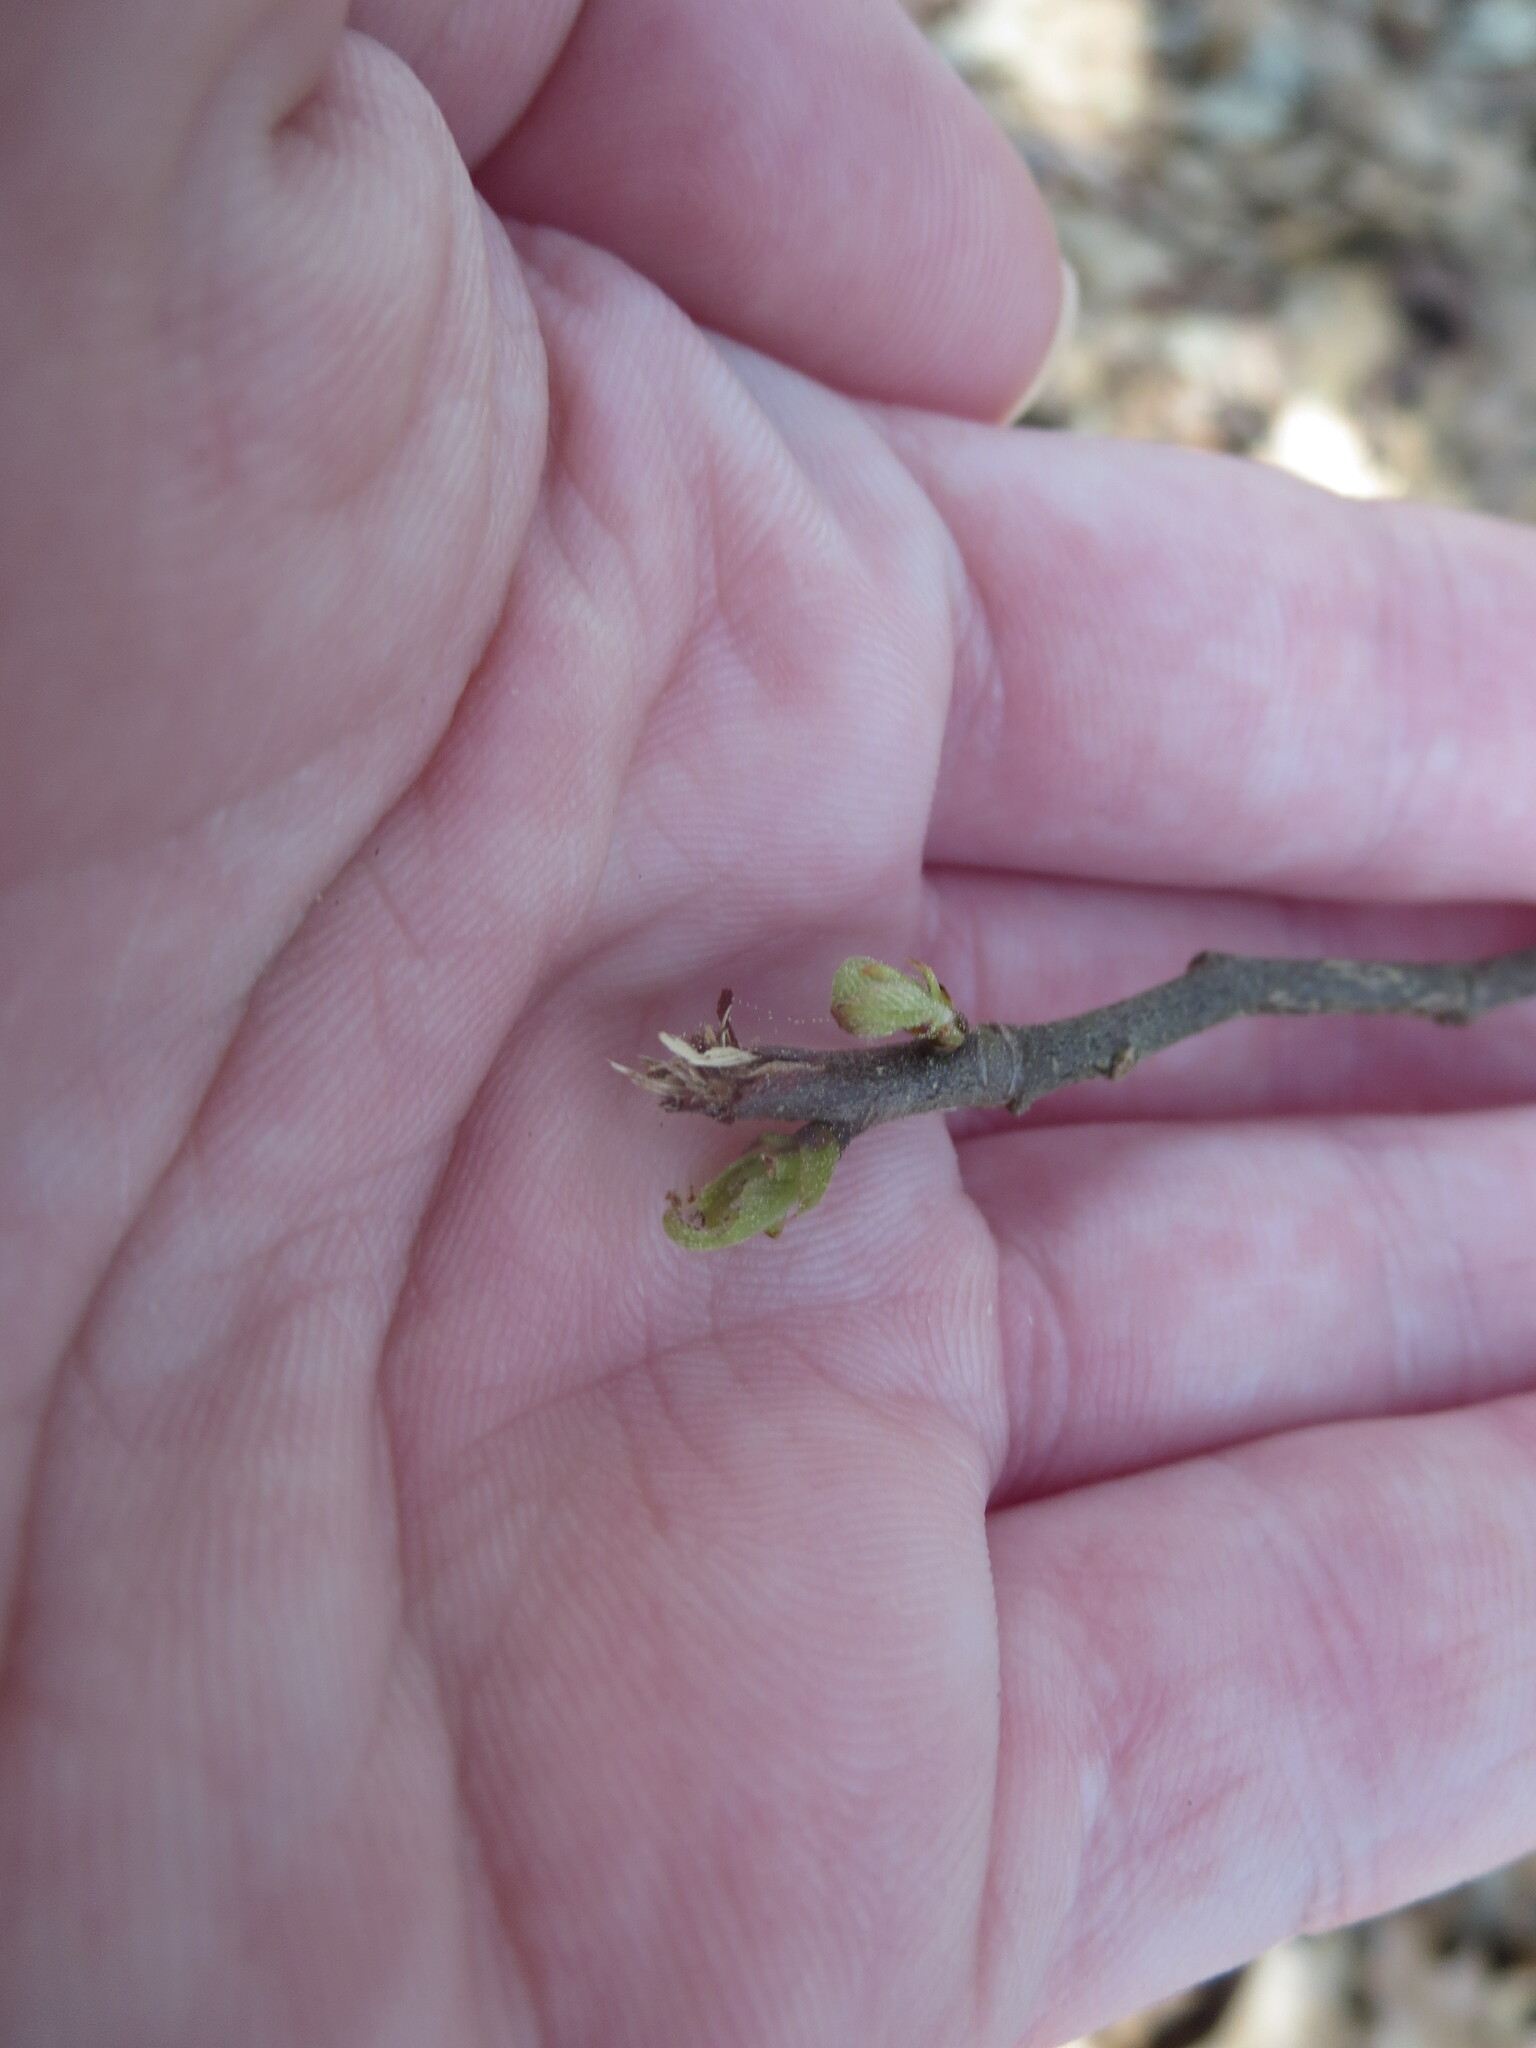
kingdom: Plantae
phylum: Tracheophyta
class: Magnoliopsida
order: Fagales
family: Fagaceae
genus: Castanea
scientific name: Castanea pumila
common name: Chinkapin
